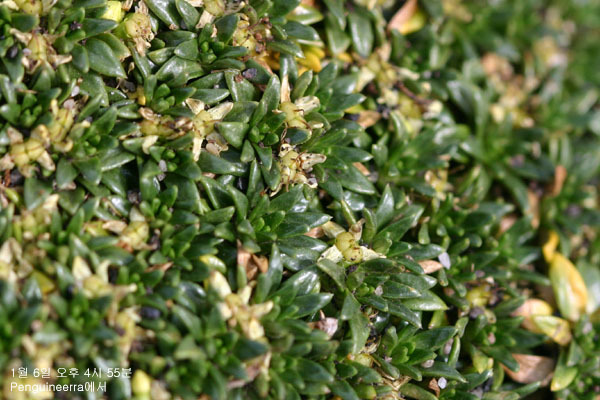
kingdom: Plantae
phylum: Tracheophyta
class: Magnoliopsida
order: Apiales
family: Apiaceae
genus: Azorella
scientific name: Azorella monantha
